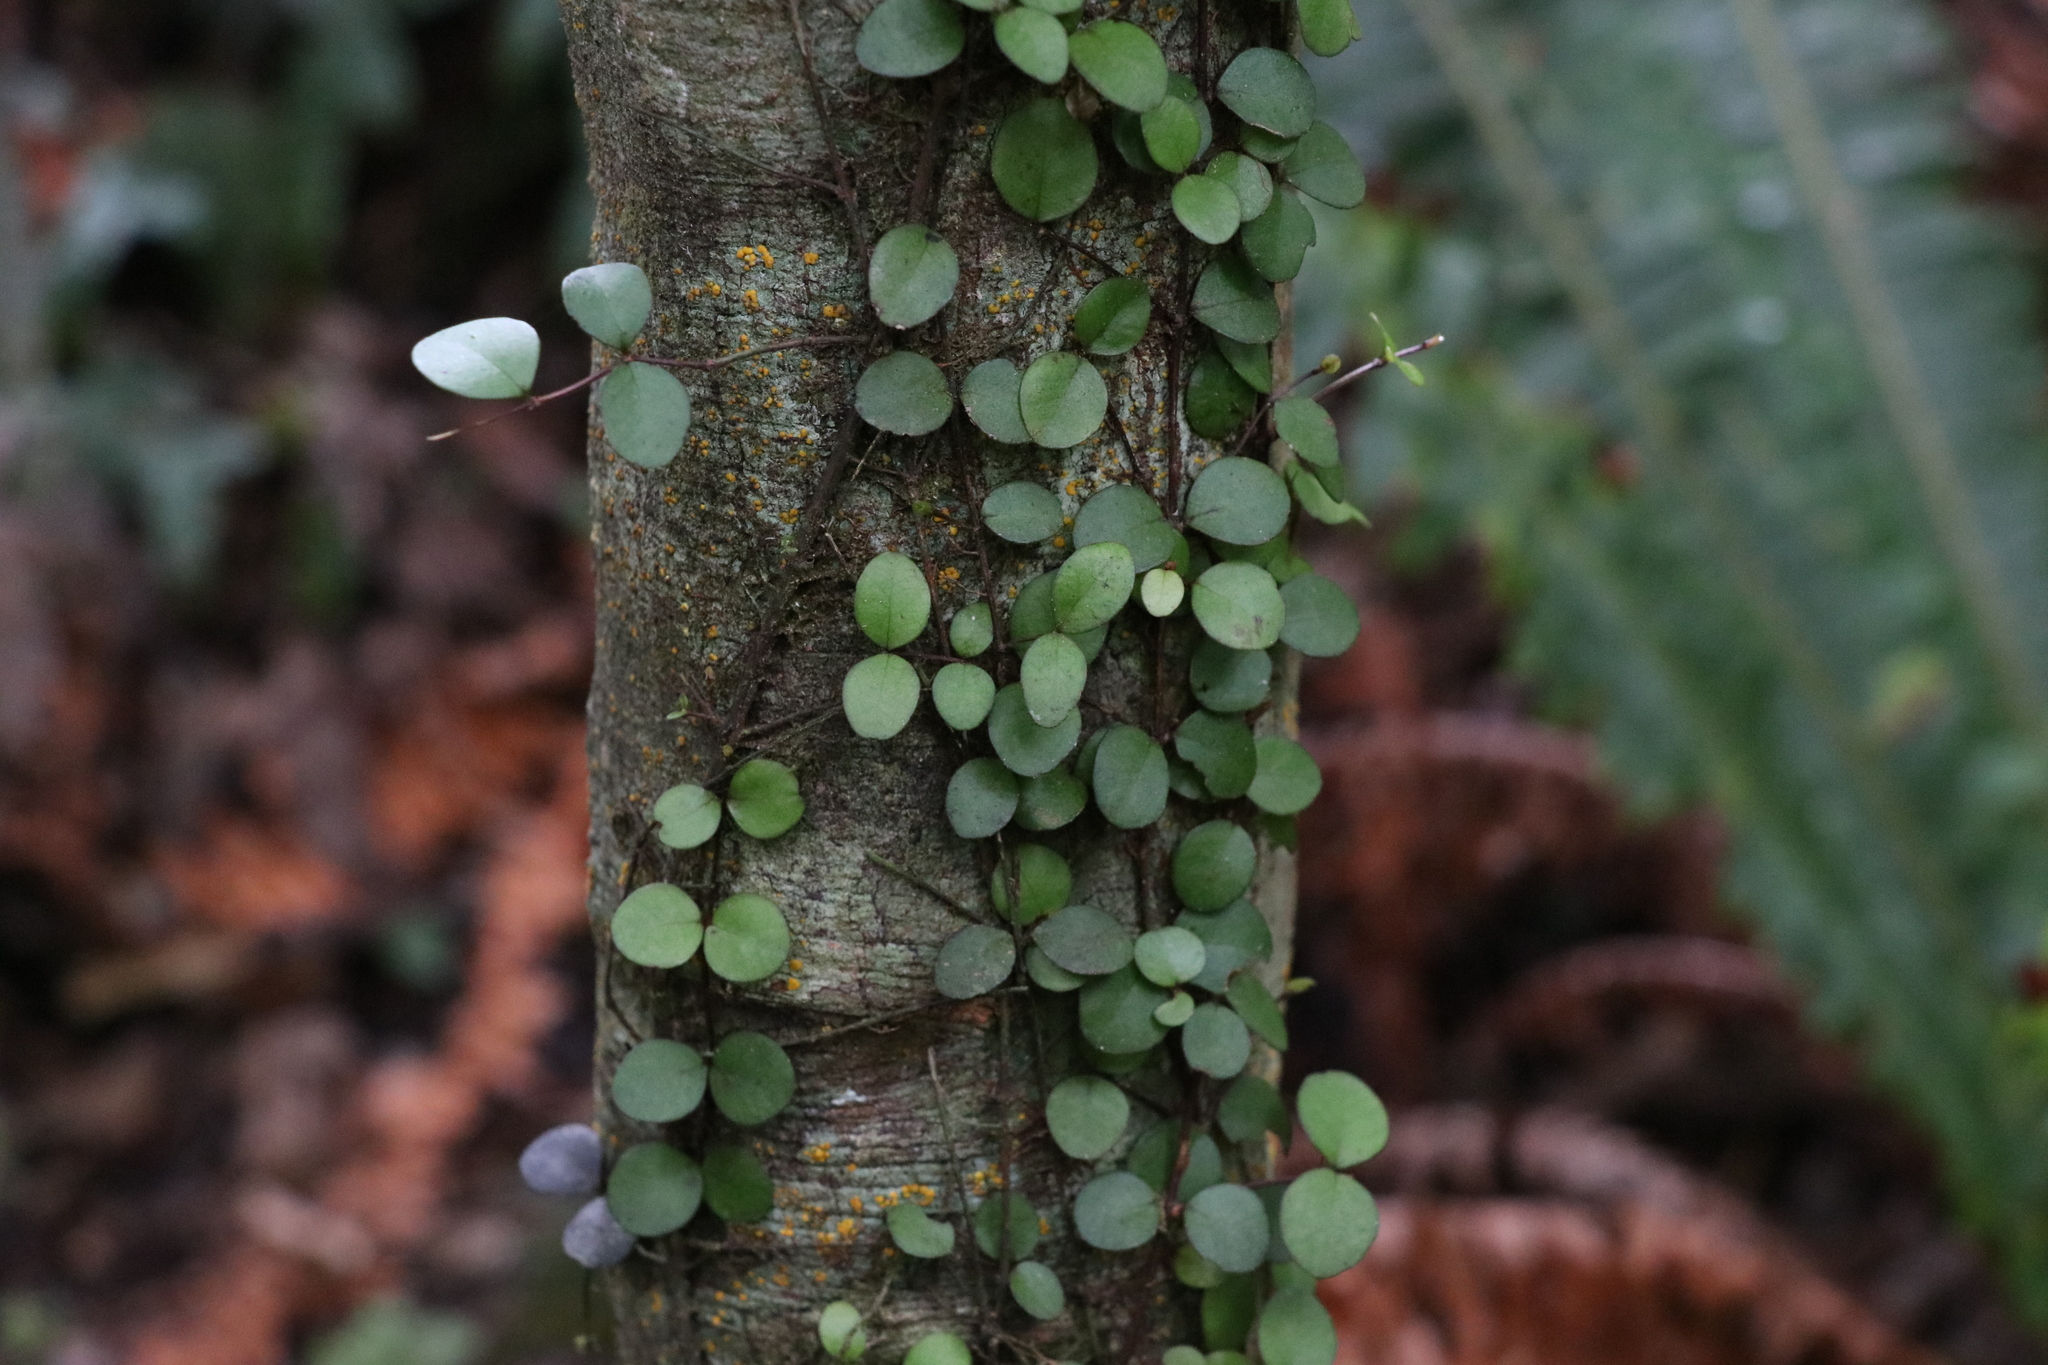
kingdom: Plantae
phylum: Tracheophyta
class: Magnoliopsida
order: Myrtales
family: Myrtaceae
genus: Metrosideros
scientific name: Metrosideros fulgens
